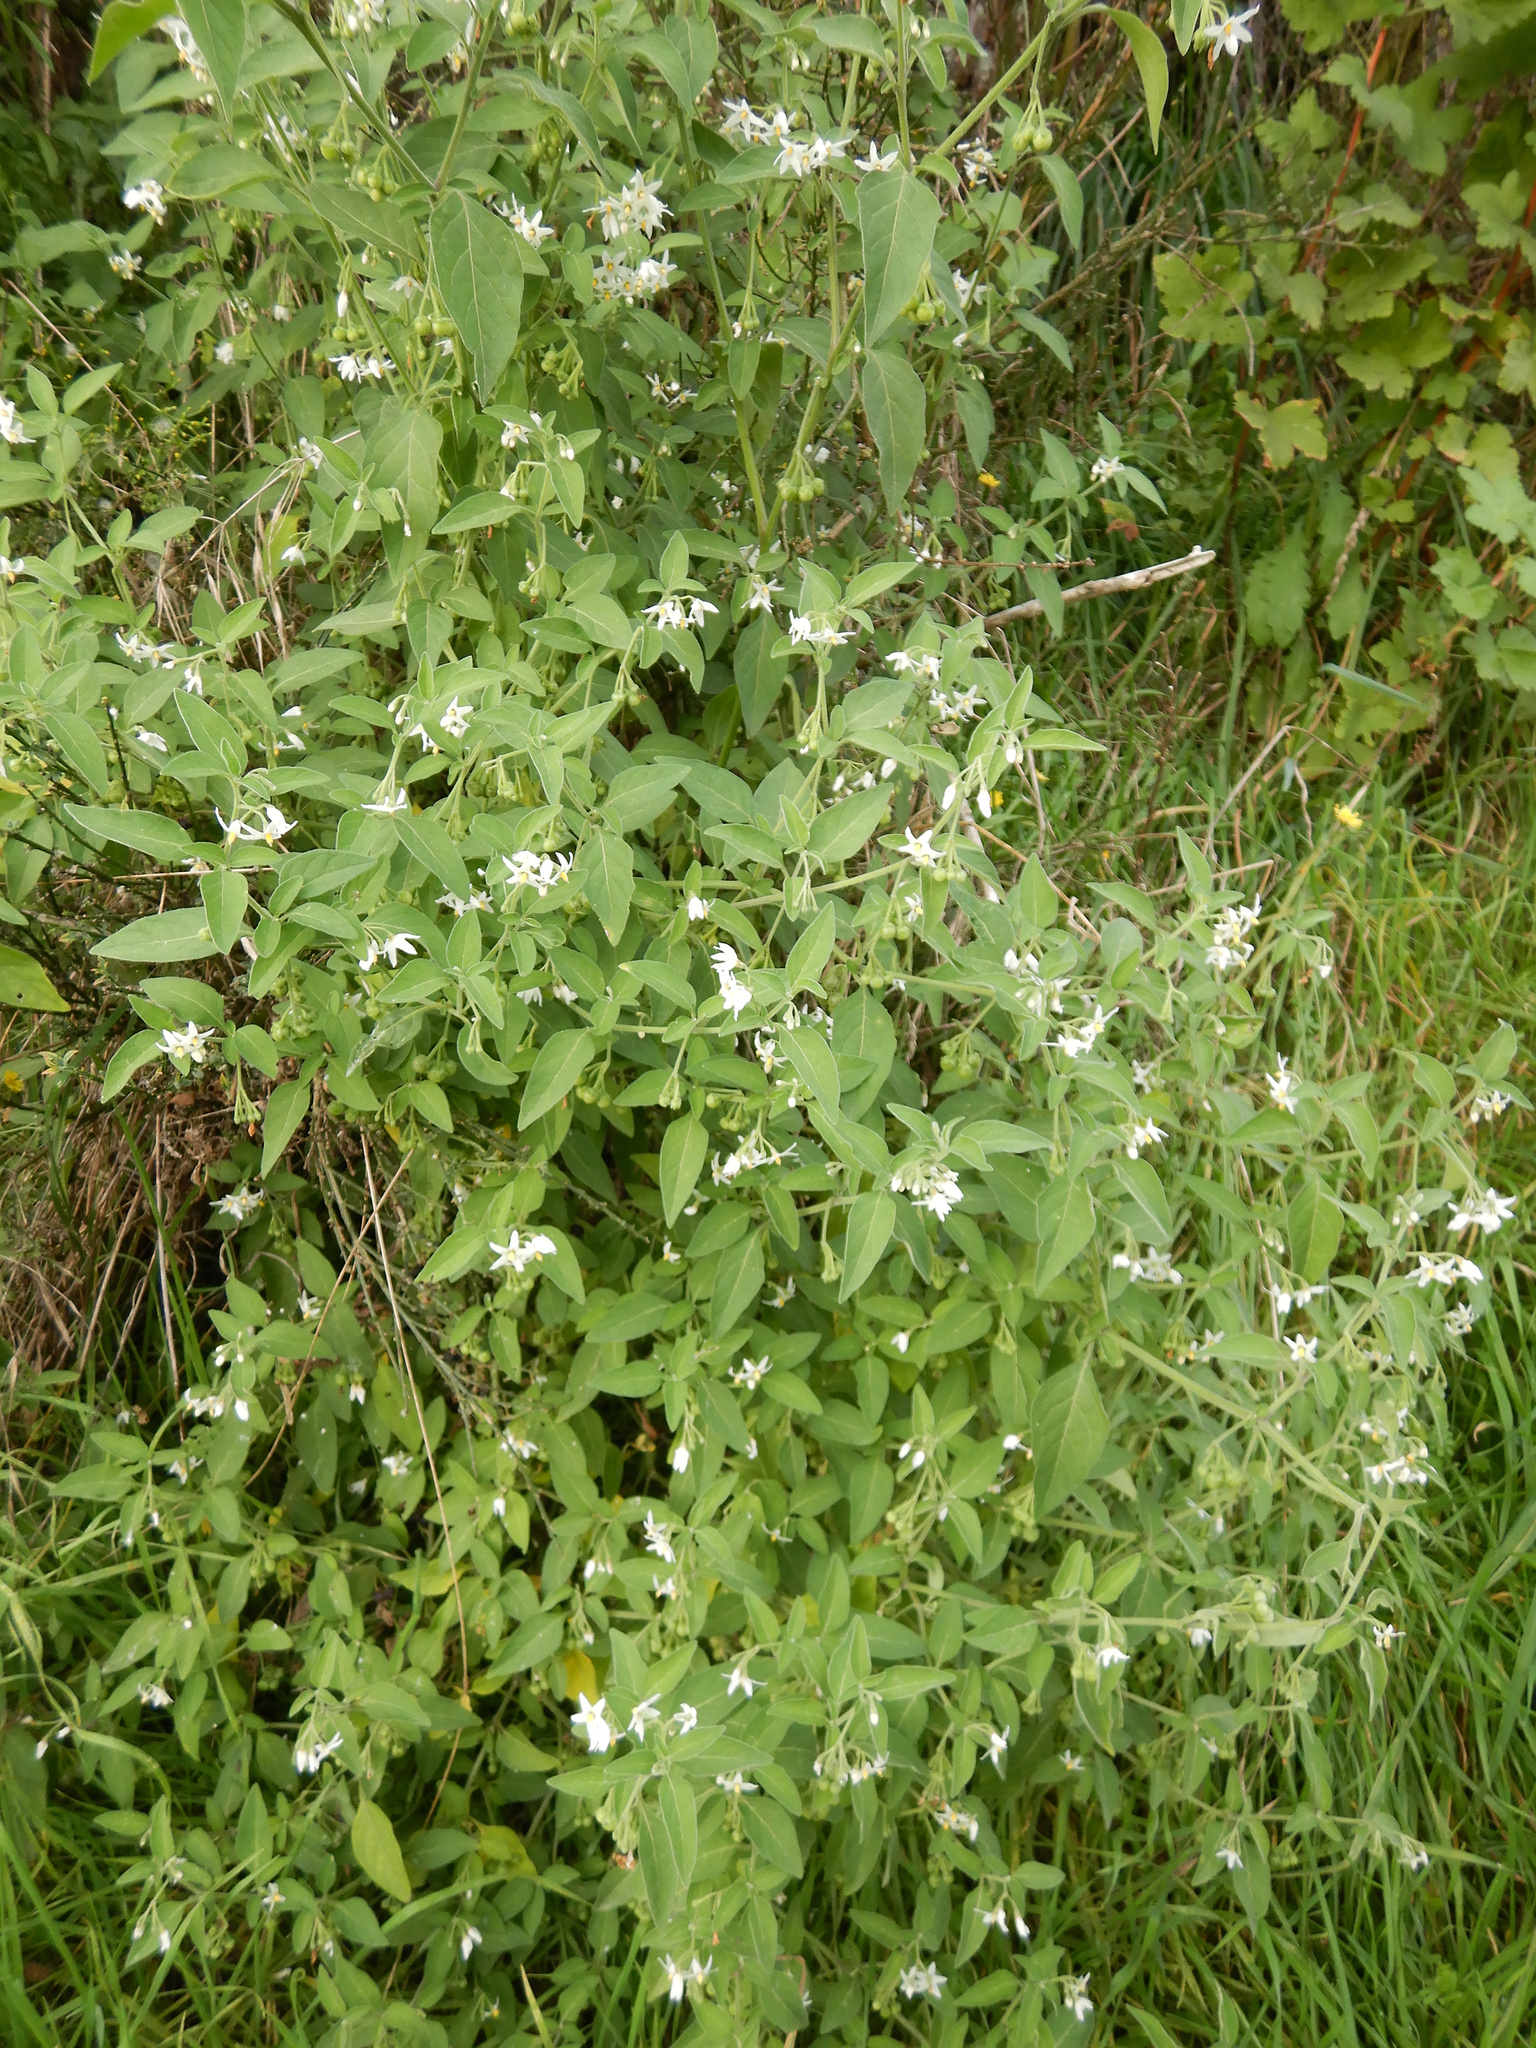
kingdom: Plantae
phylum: Tracheophyta
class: Magnoliopsida
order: Solanales
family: Solanaceae
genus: Solanum
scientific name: Solanum chenopodioides
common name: Tall nightshade
